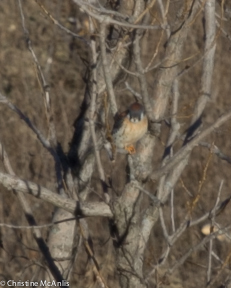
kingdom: Animalia
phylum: Chordata
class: Aves
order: Falconiformes
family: Falconidae
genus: Falco
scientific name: Falco sparverius
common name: American kestrel
